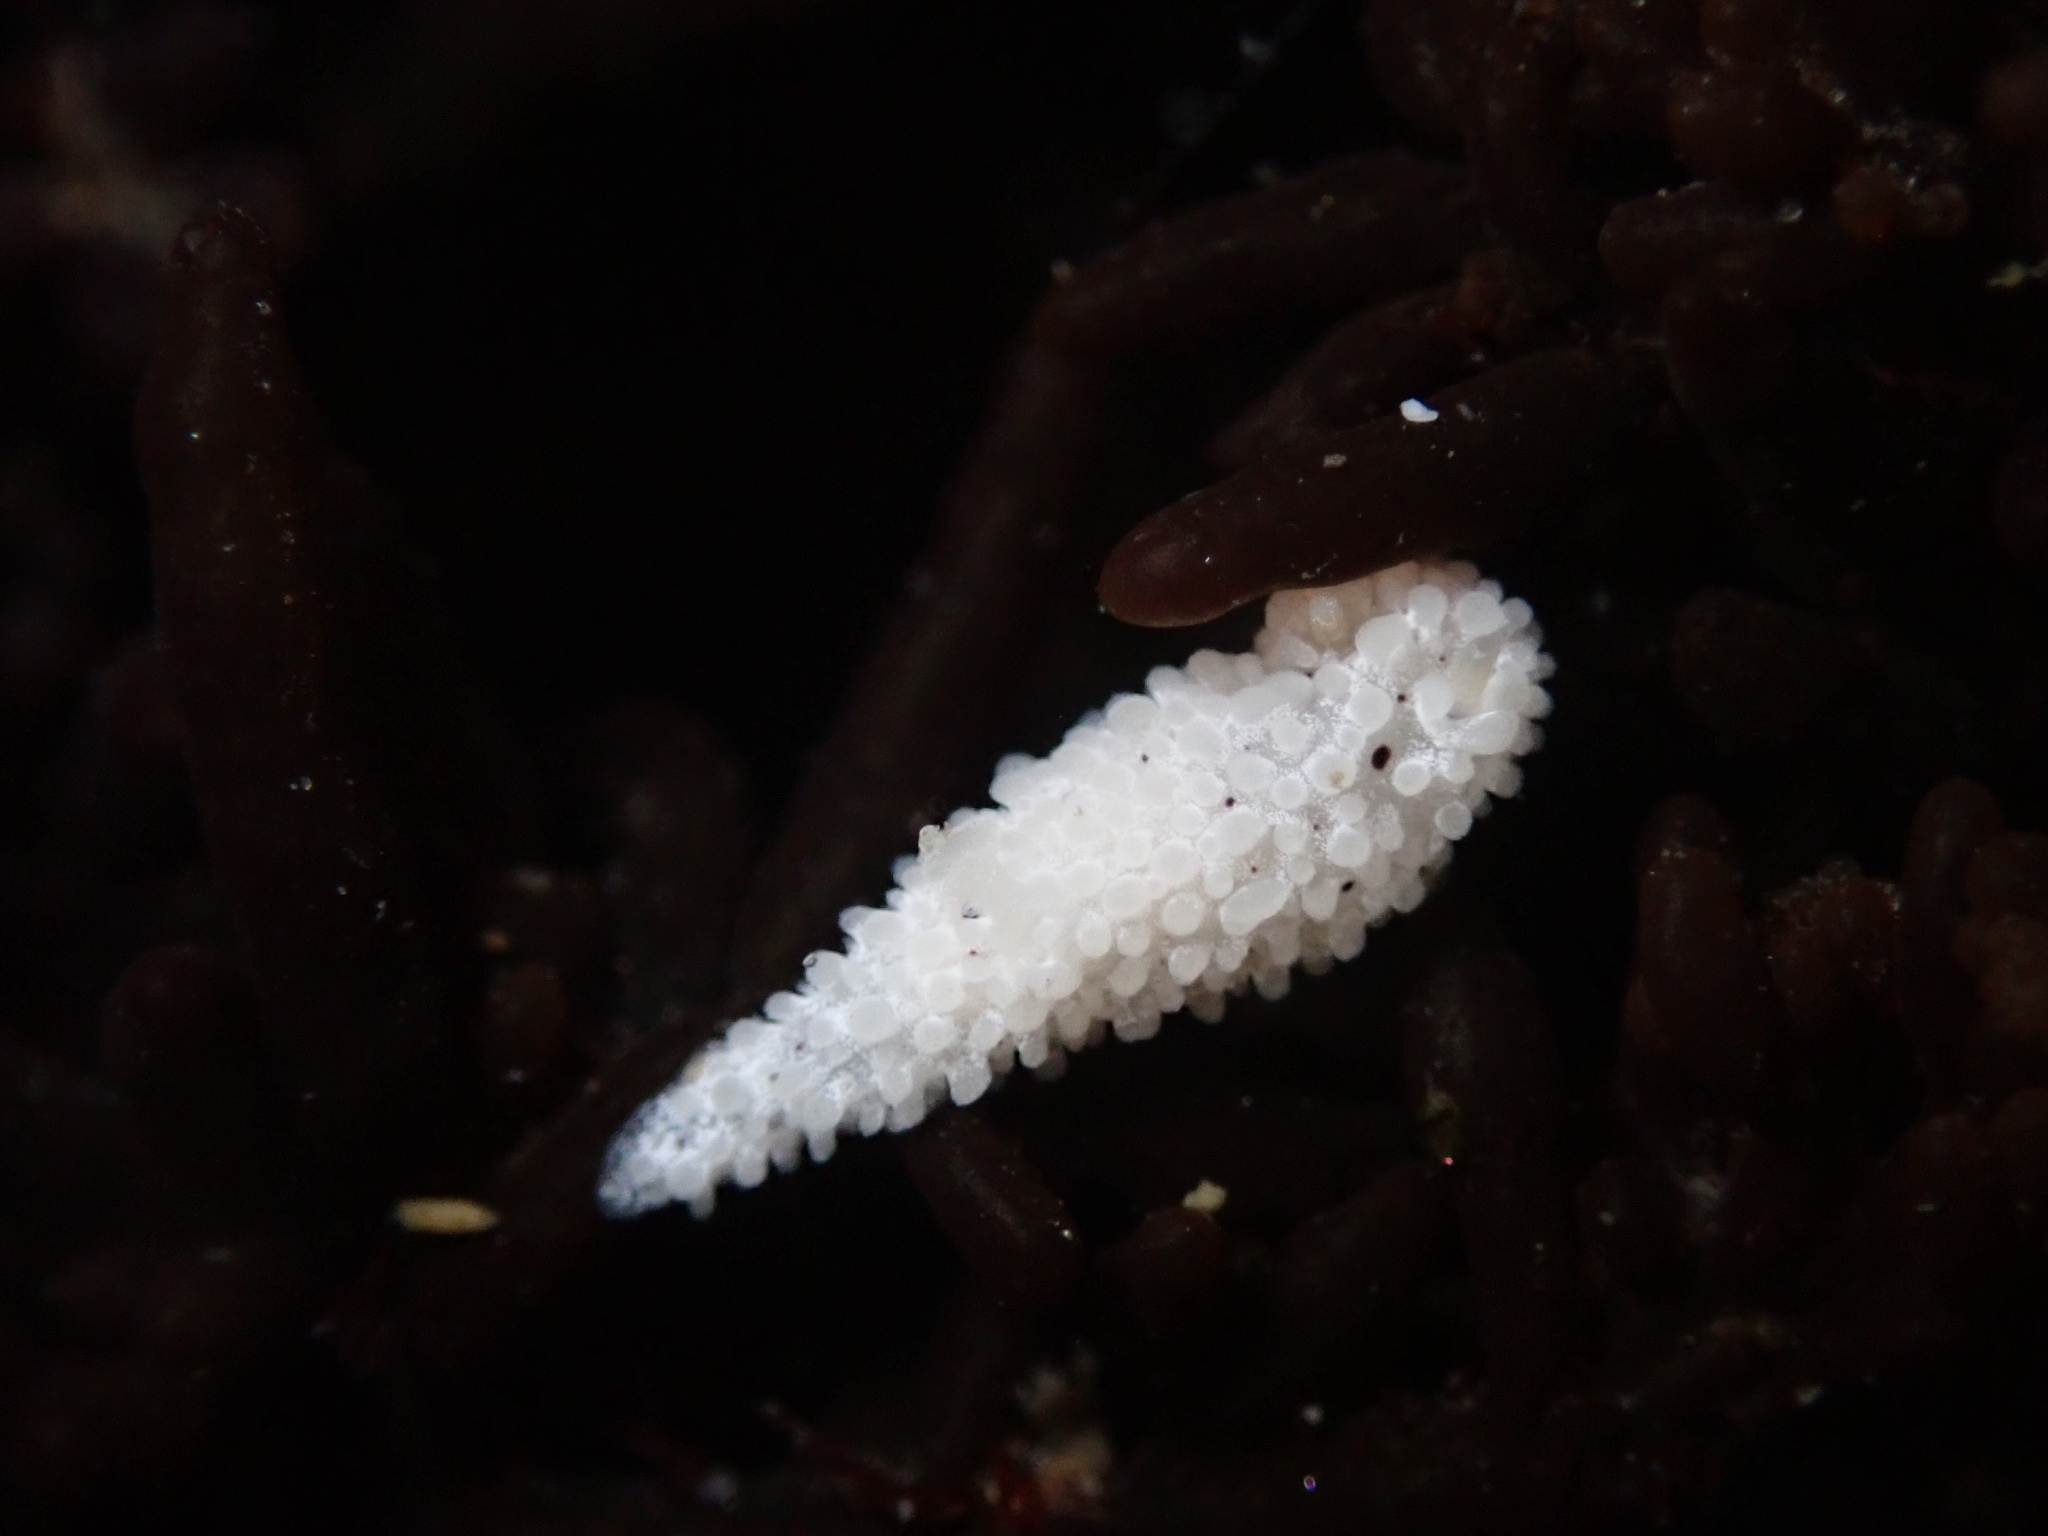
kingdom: Animalia
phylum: Mollusca
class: Gastropoda
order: Nudibranchia
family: Aegiridae
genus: Aegires
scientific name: Aegires albopunctatus
